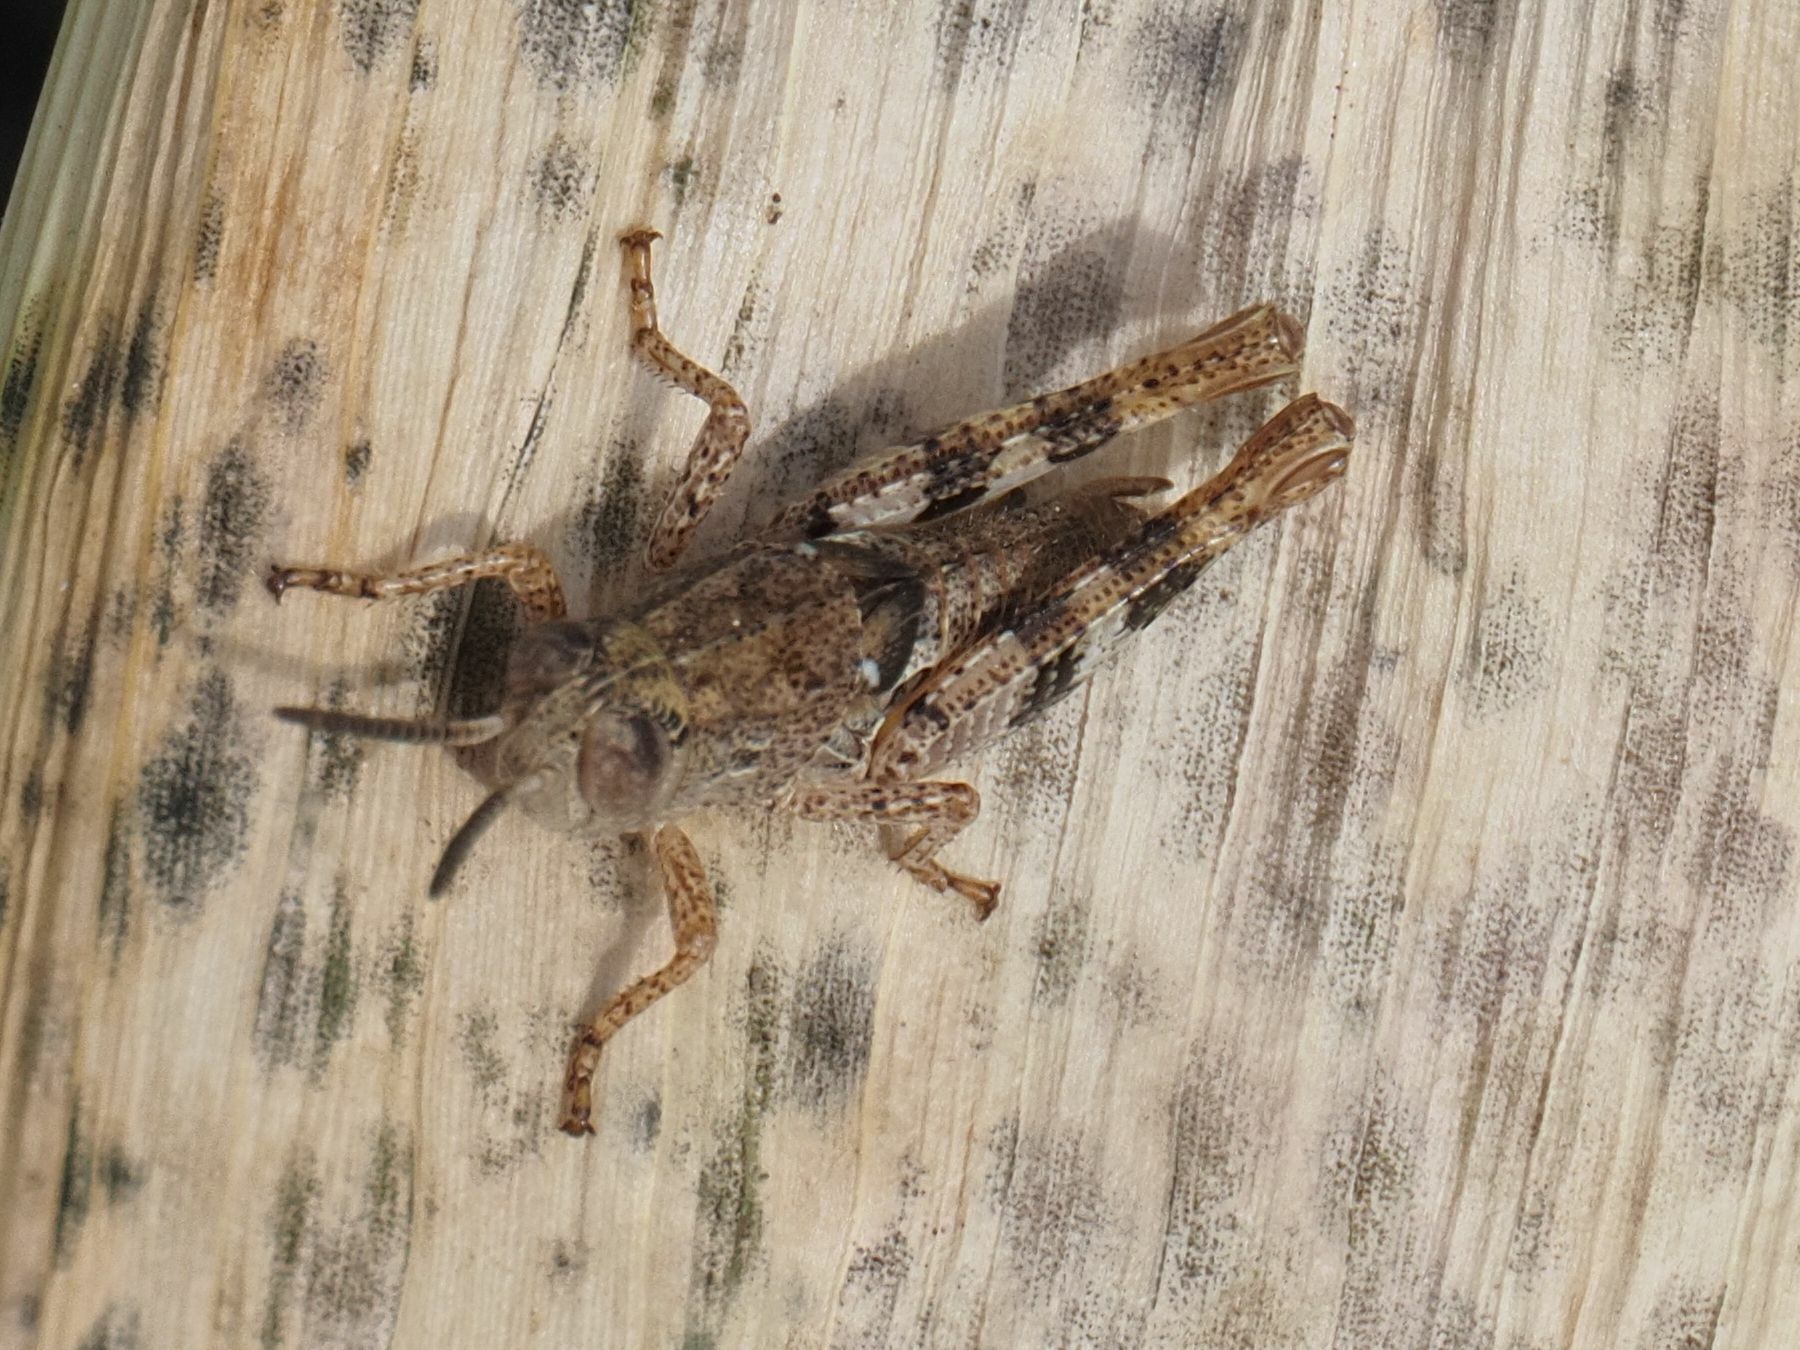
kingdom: Animalia
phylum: Arthropoda
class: Insecta
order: Orthoptera
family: Acrididae
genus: Calliptamus
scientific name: Calliptamus italicus
